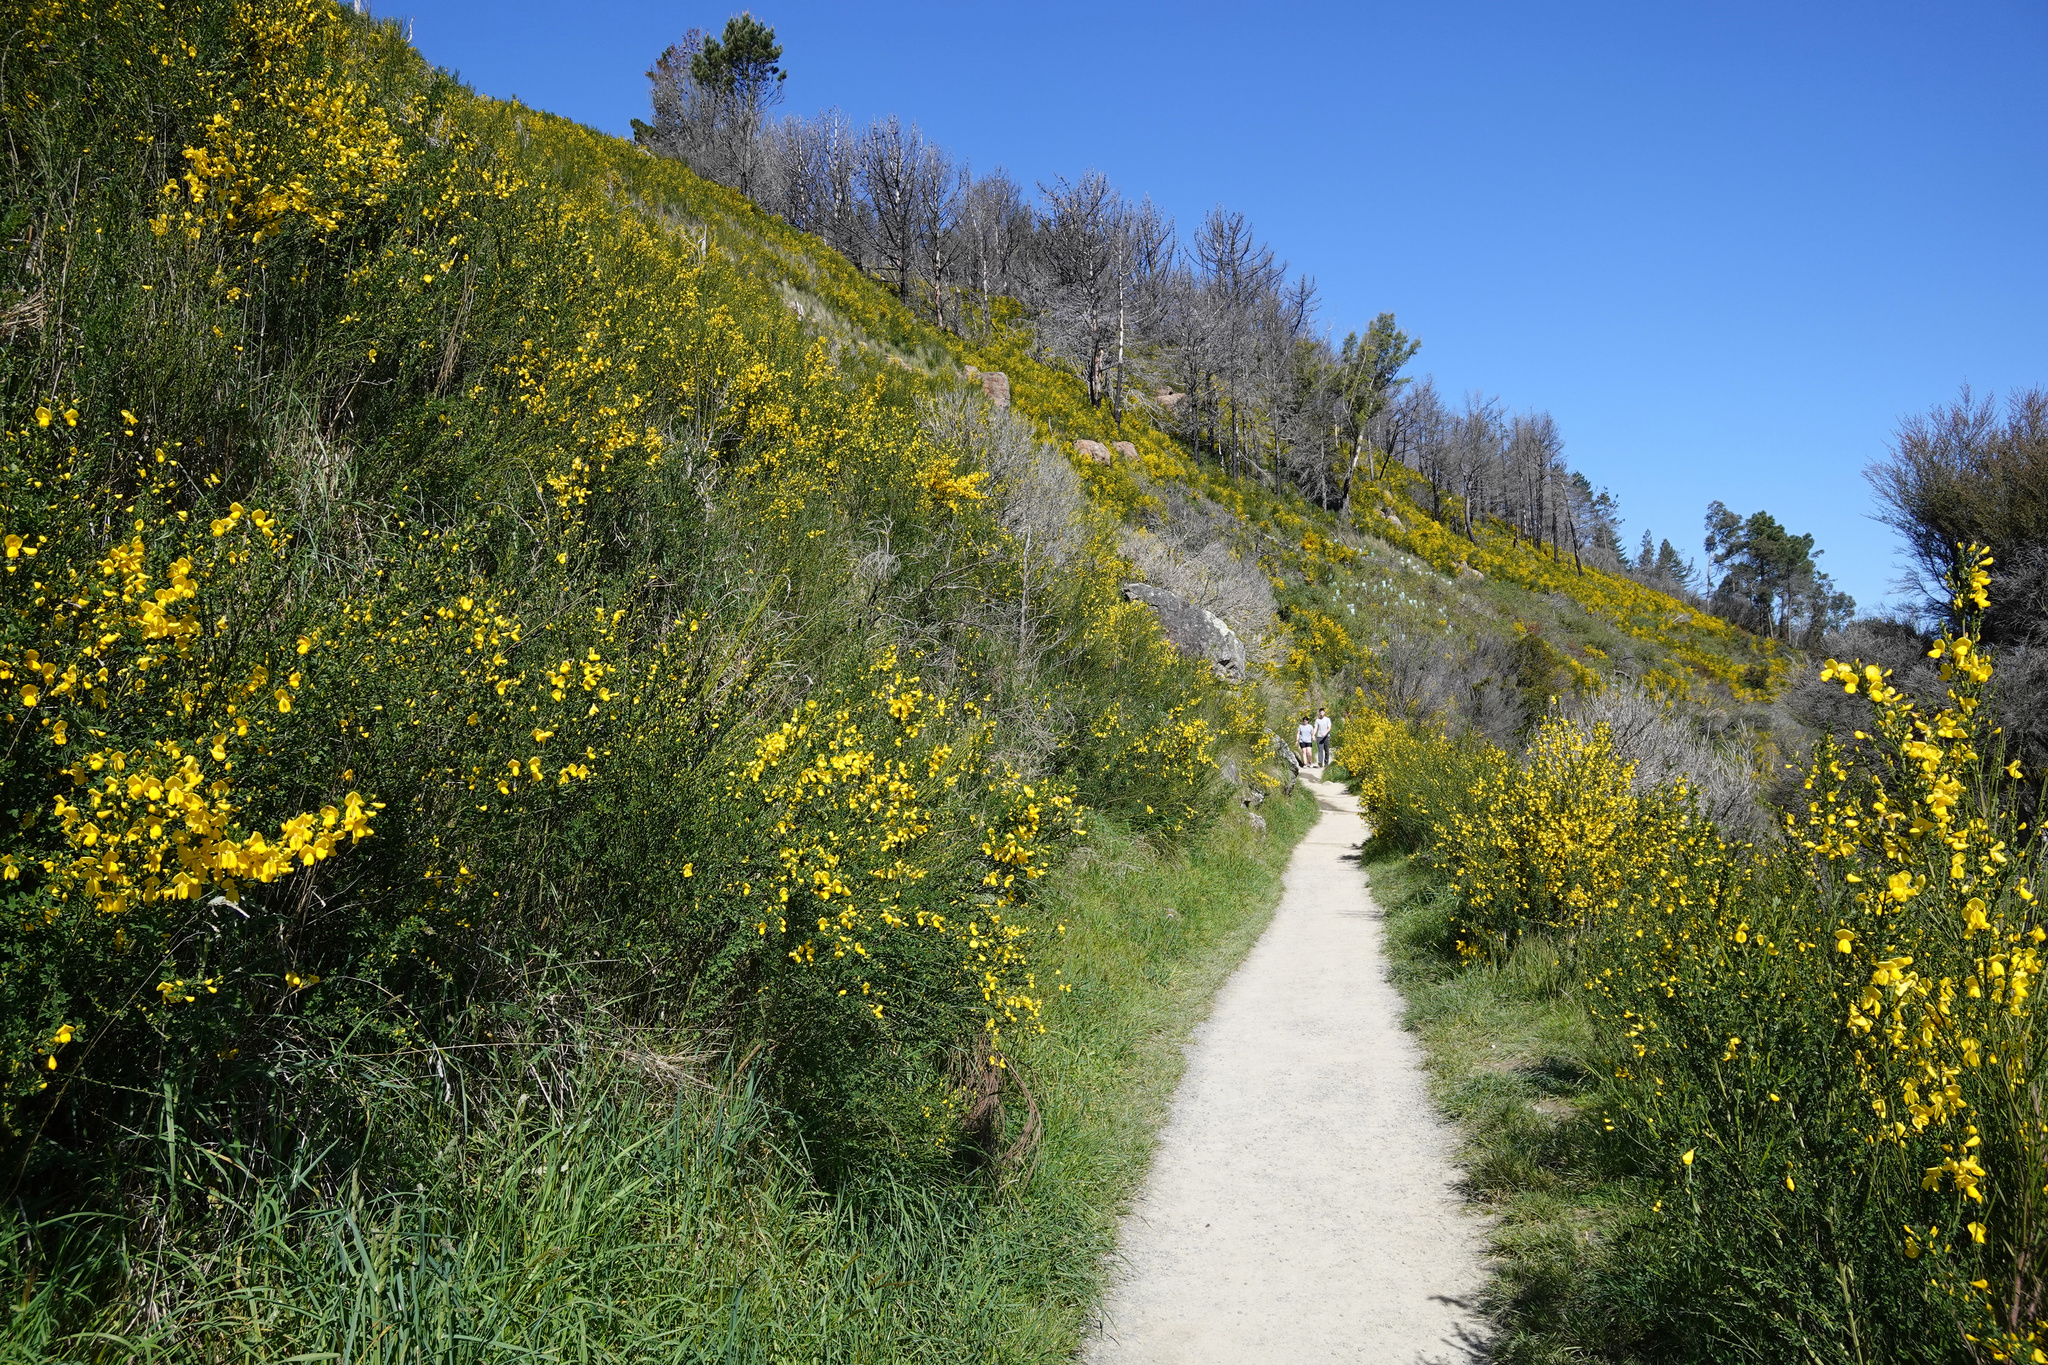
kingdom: Plantae
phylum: Tracheophyta
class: Magnoliopsida
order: Fabales
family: Fabaceae
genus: Cytisus
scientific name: Cytisus scoparius
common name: Scotch broom
